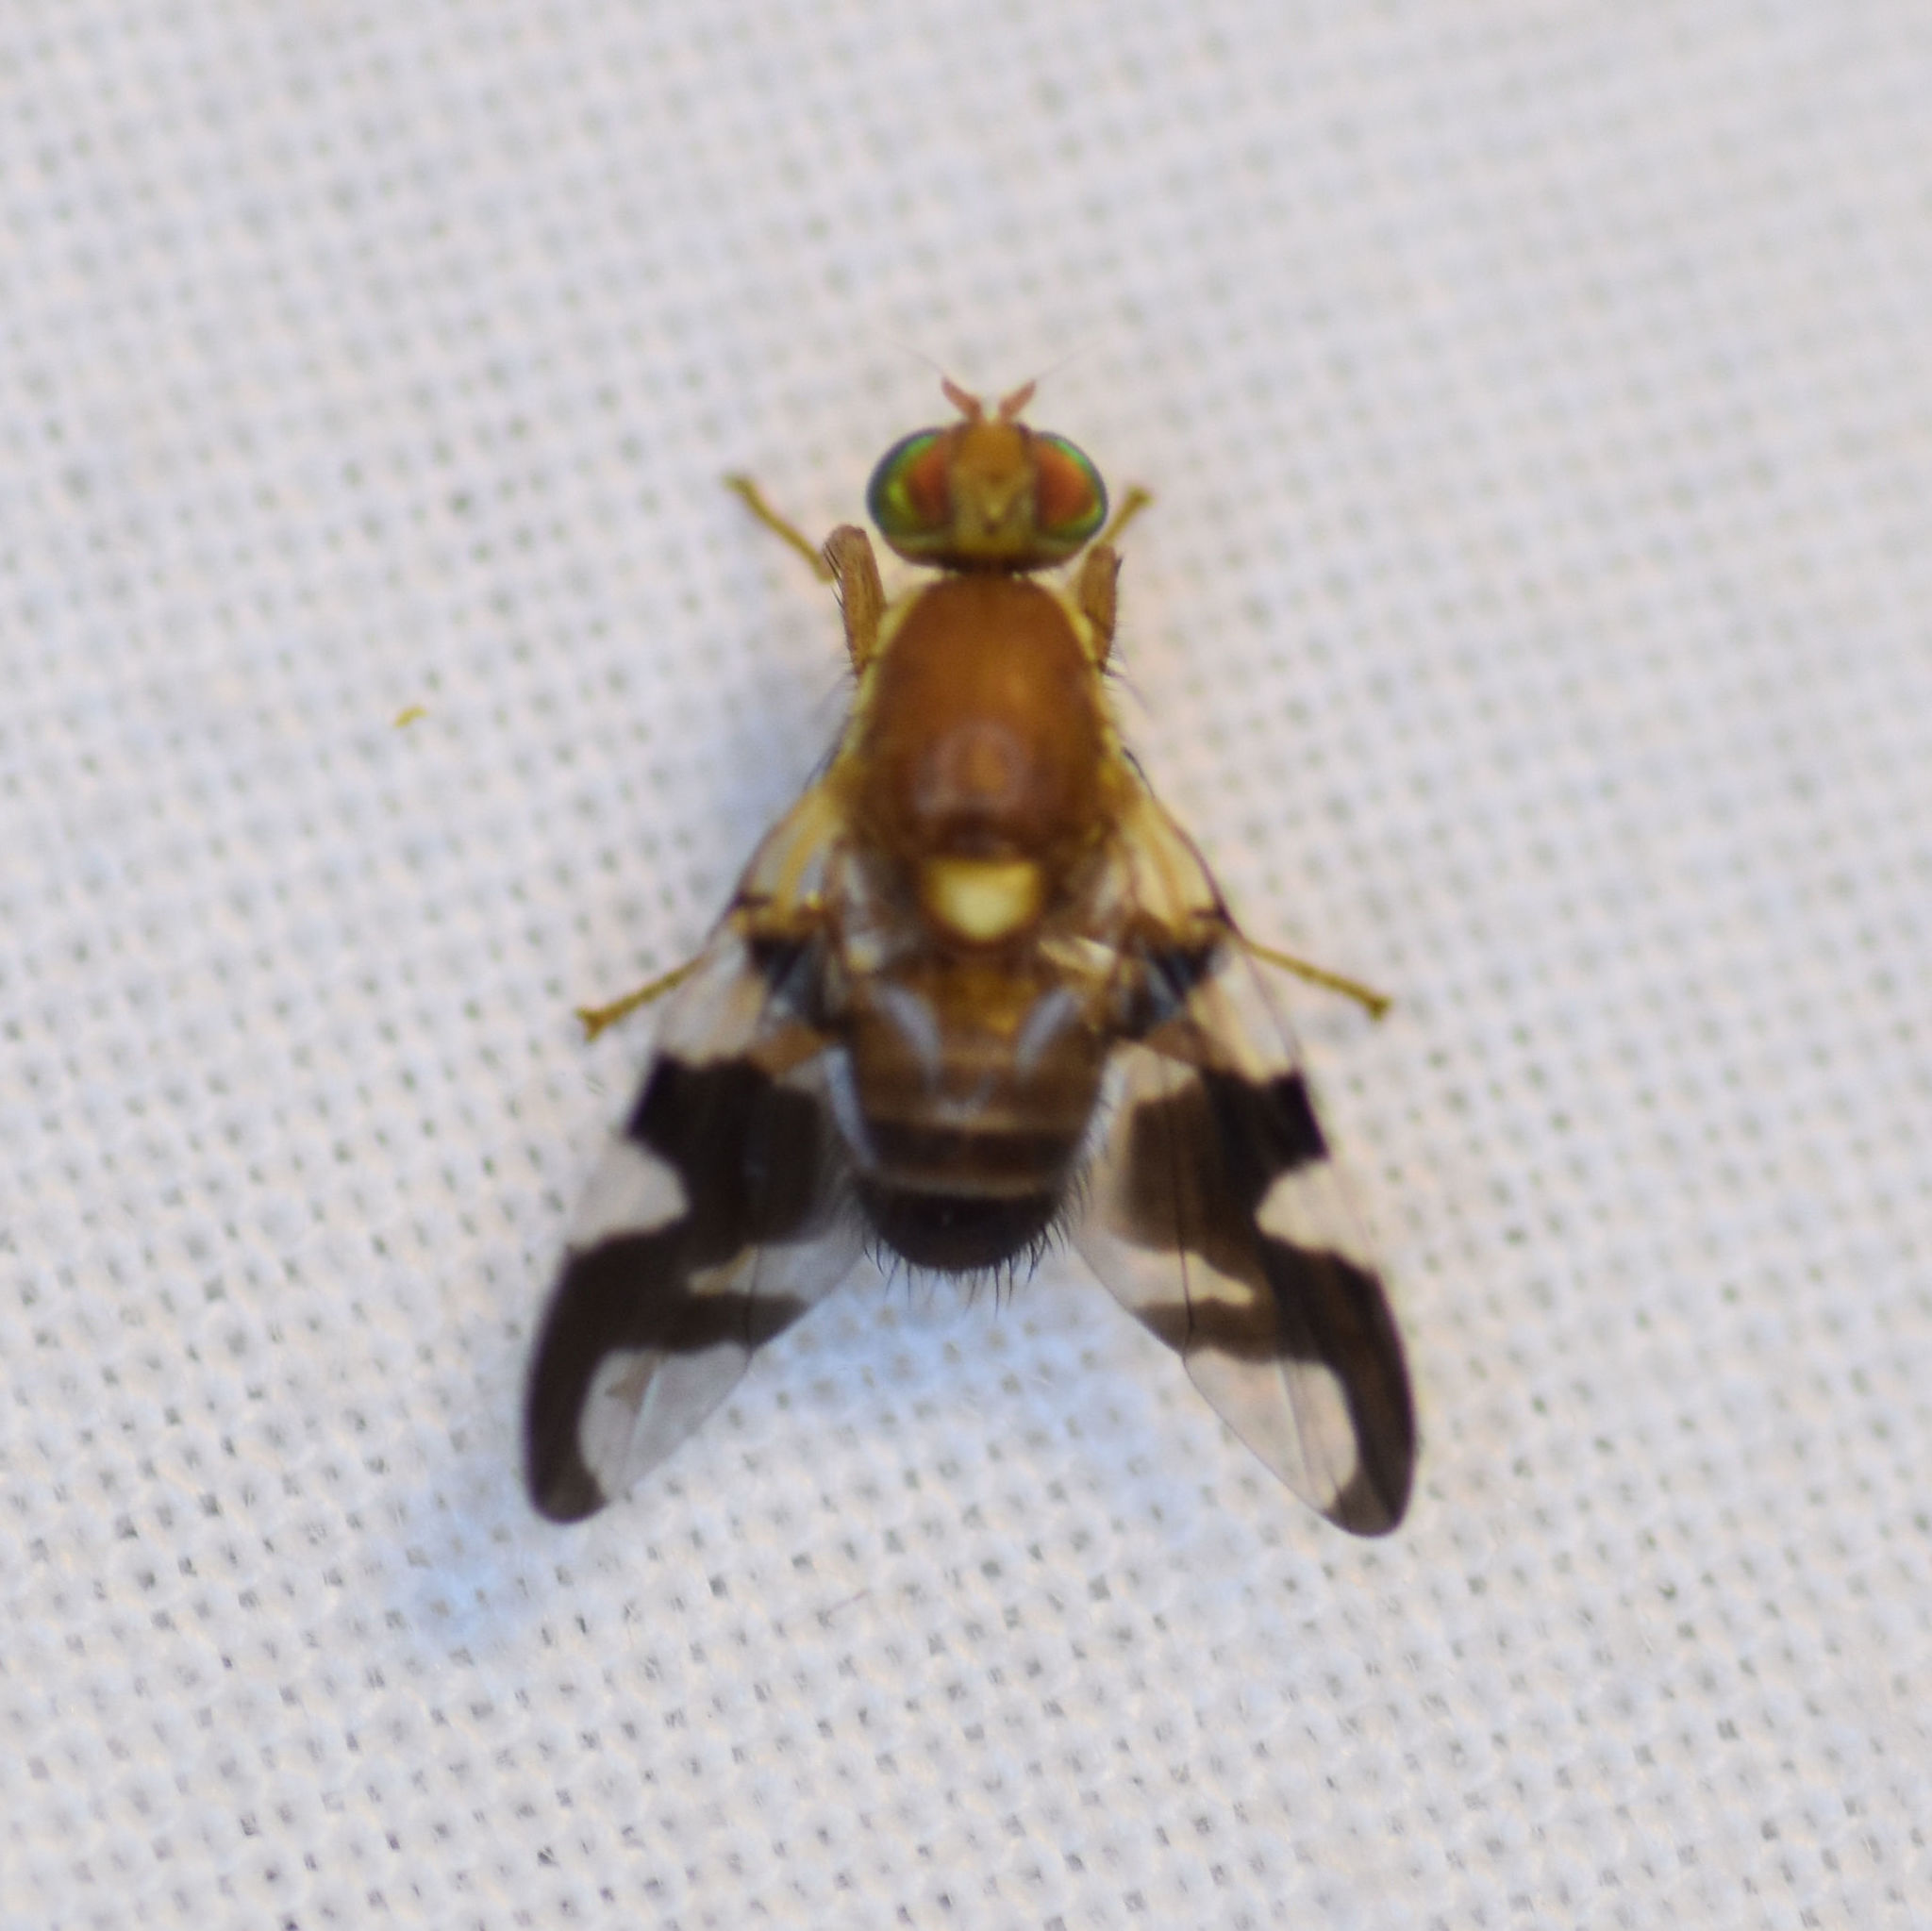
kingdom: Animalia
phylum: Arthropoda
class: Insecta
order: Diptera
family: Tephritidae
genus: Rhagoletis
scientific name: Rhagoletis suavis
